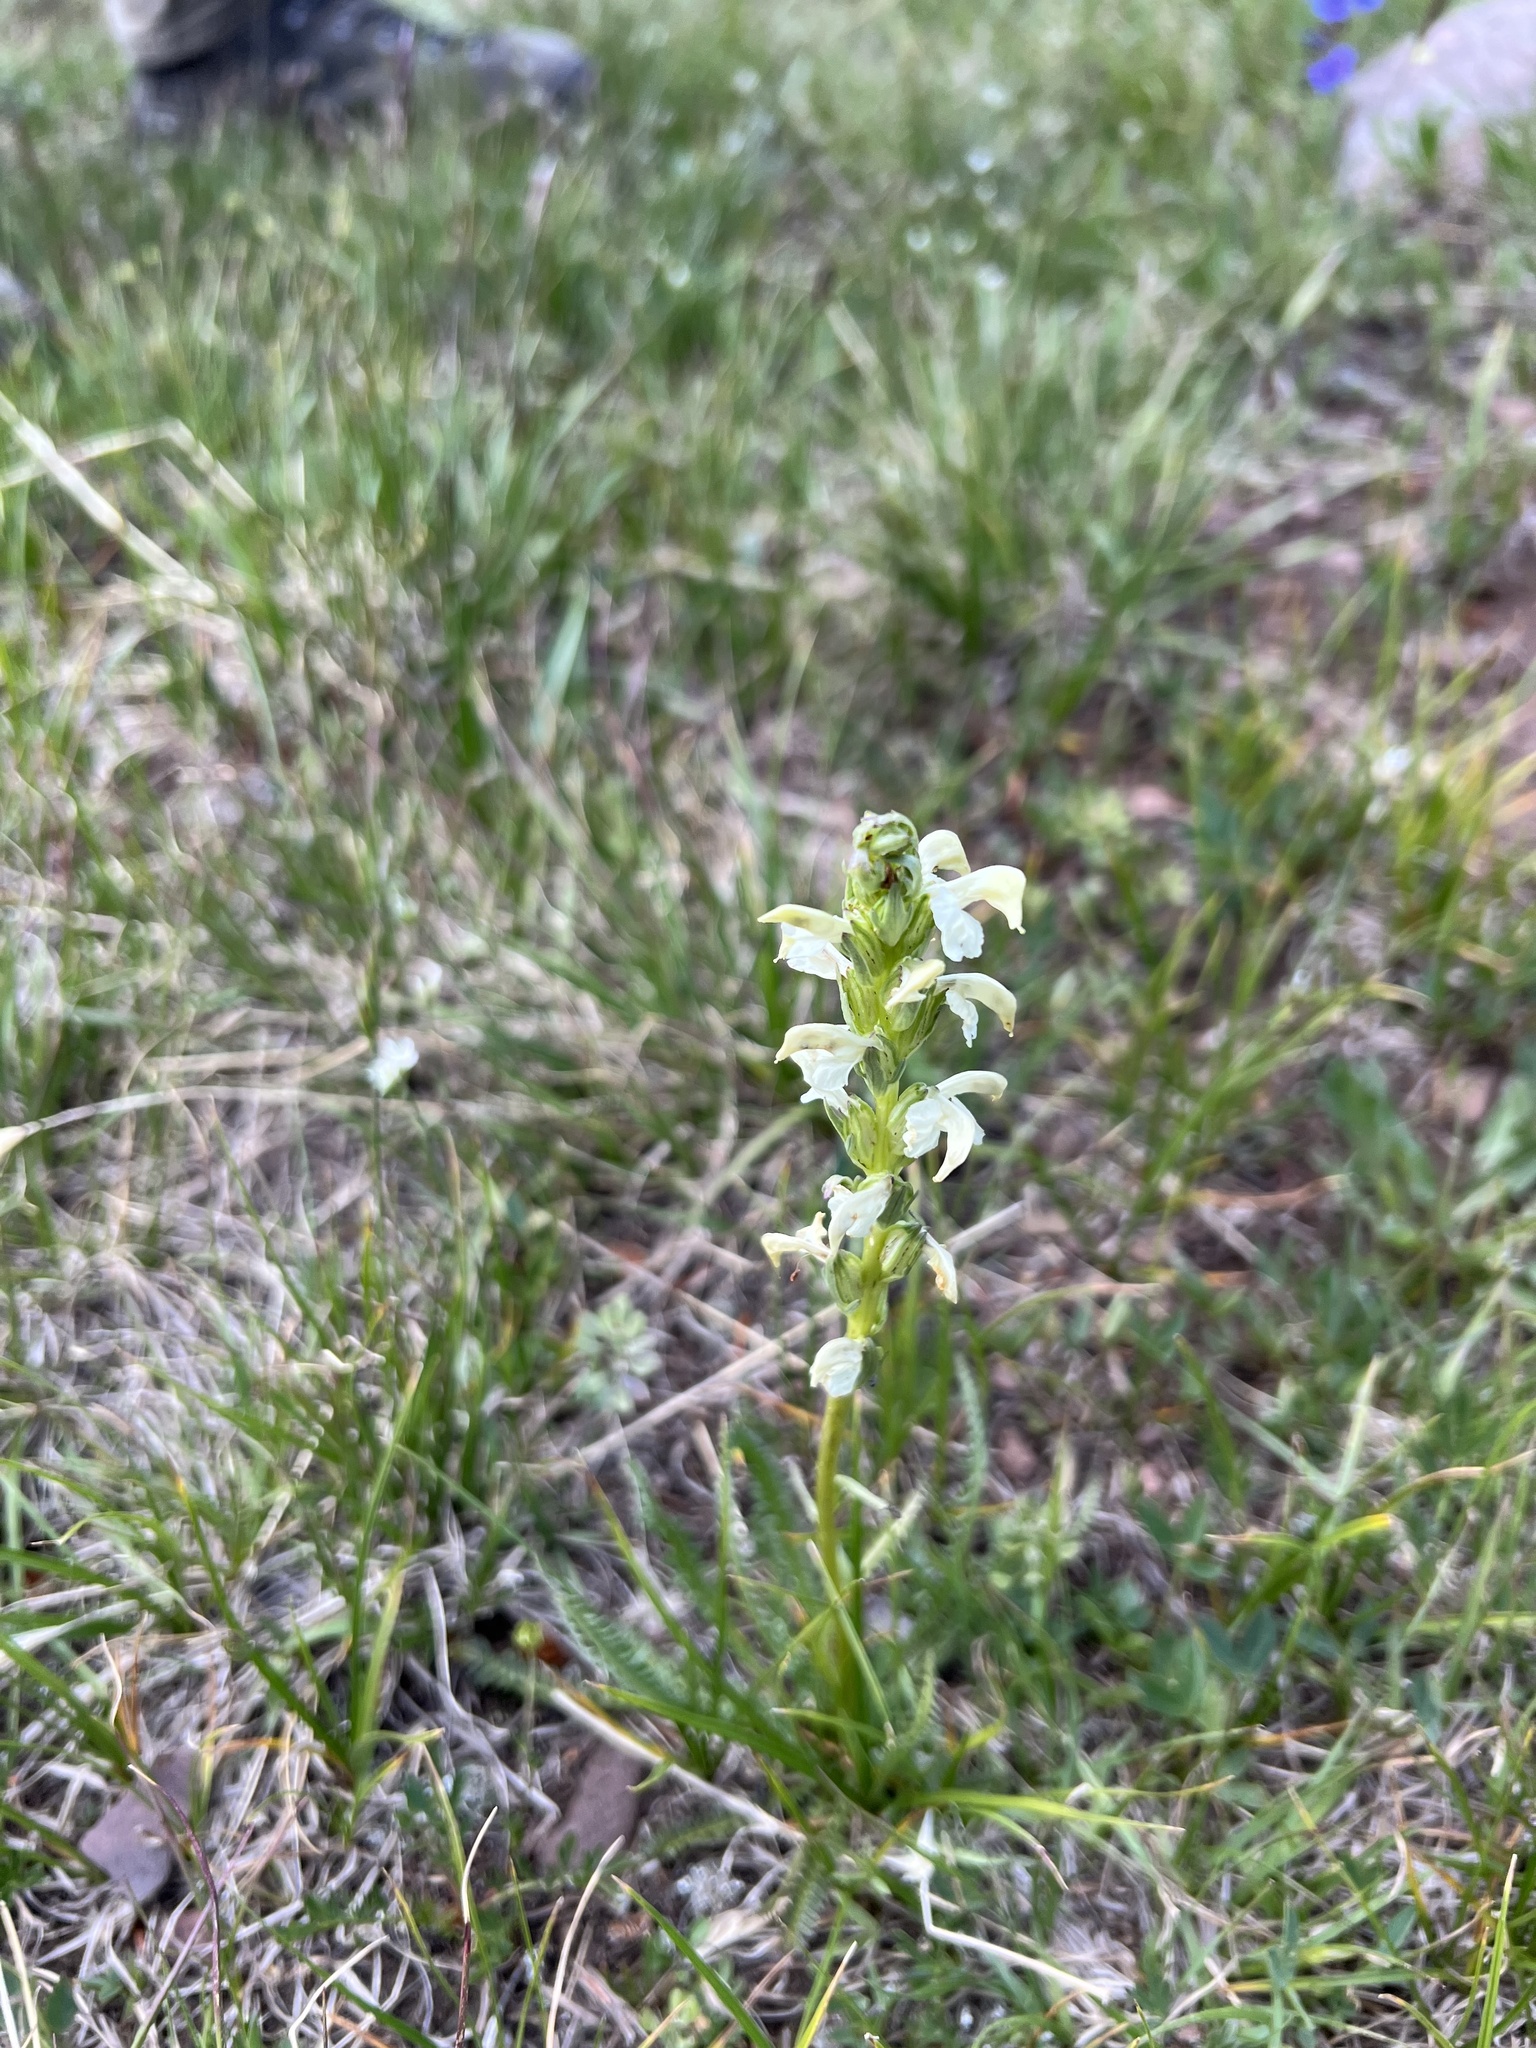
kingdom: Plantae
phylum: Tracheophyta
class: Magnoliopsida
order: Lamiales
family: Orobanchaceae
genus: Pedicularis
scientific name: Pedicularis parryi
